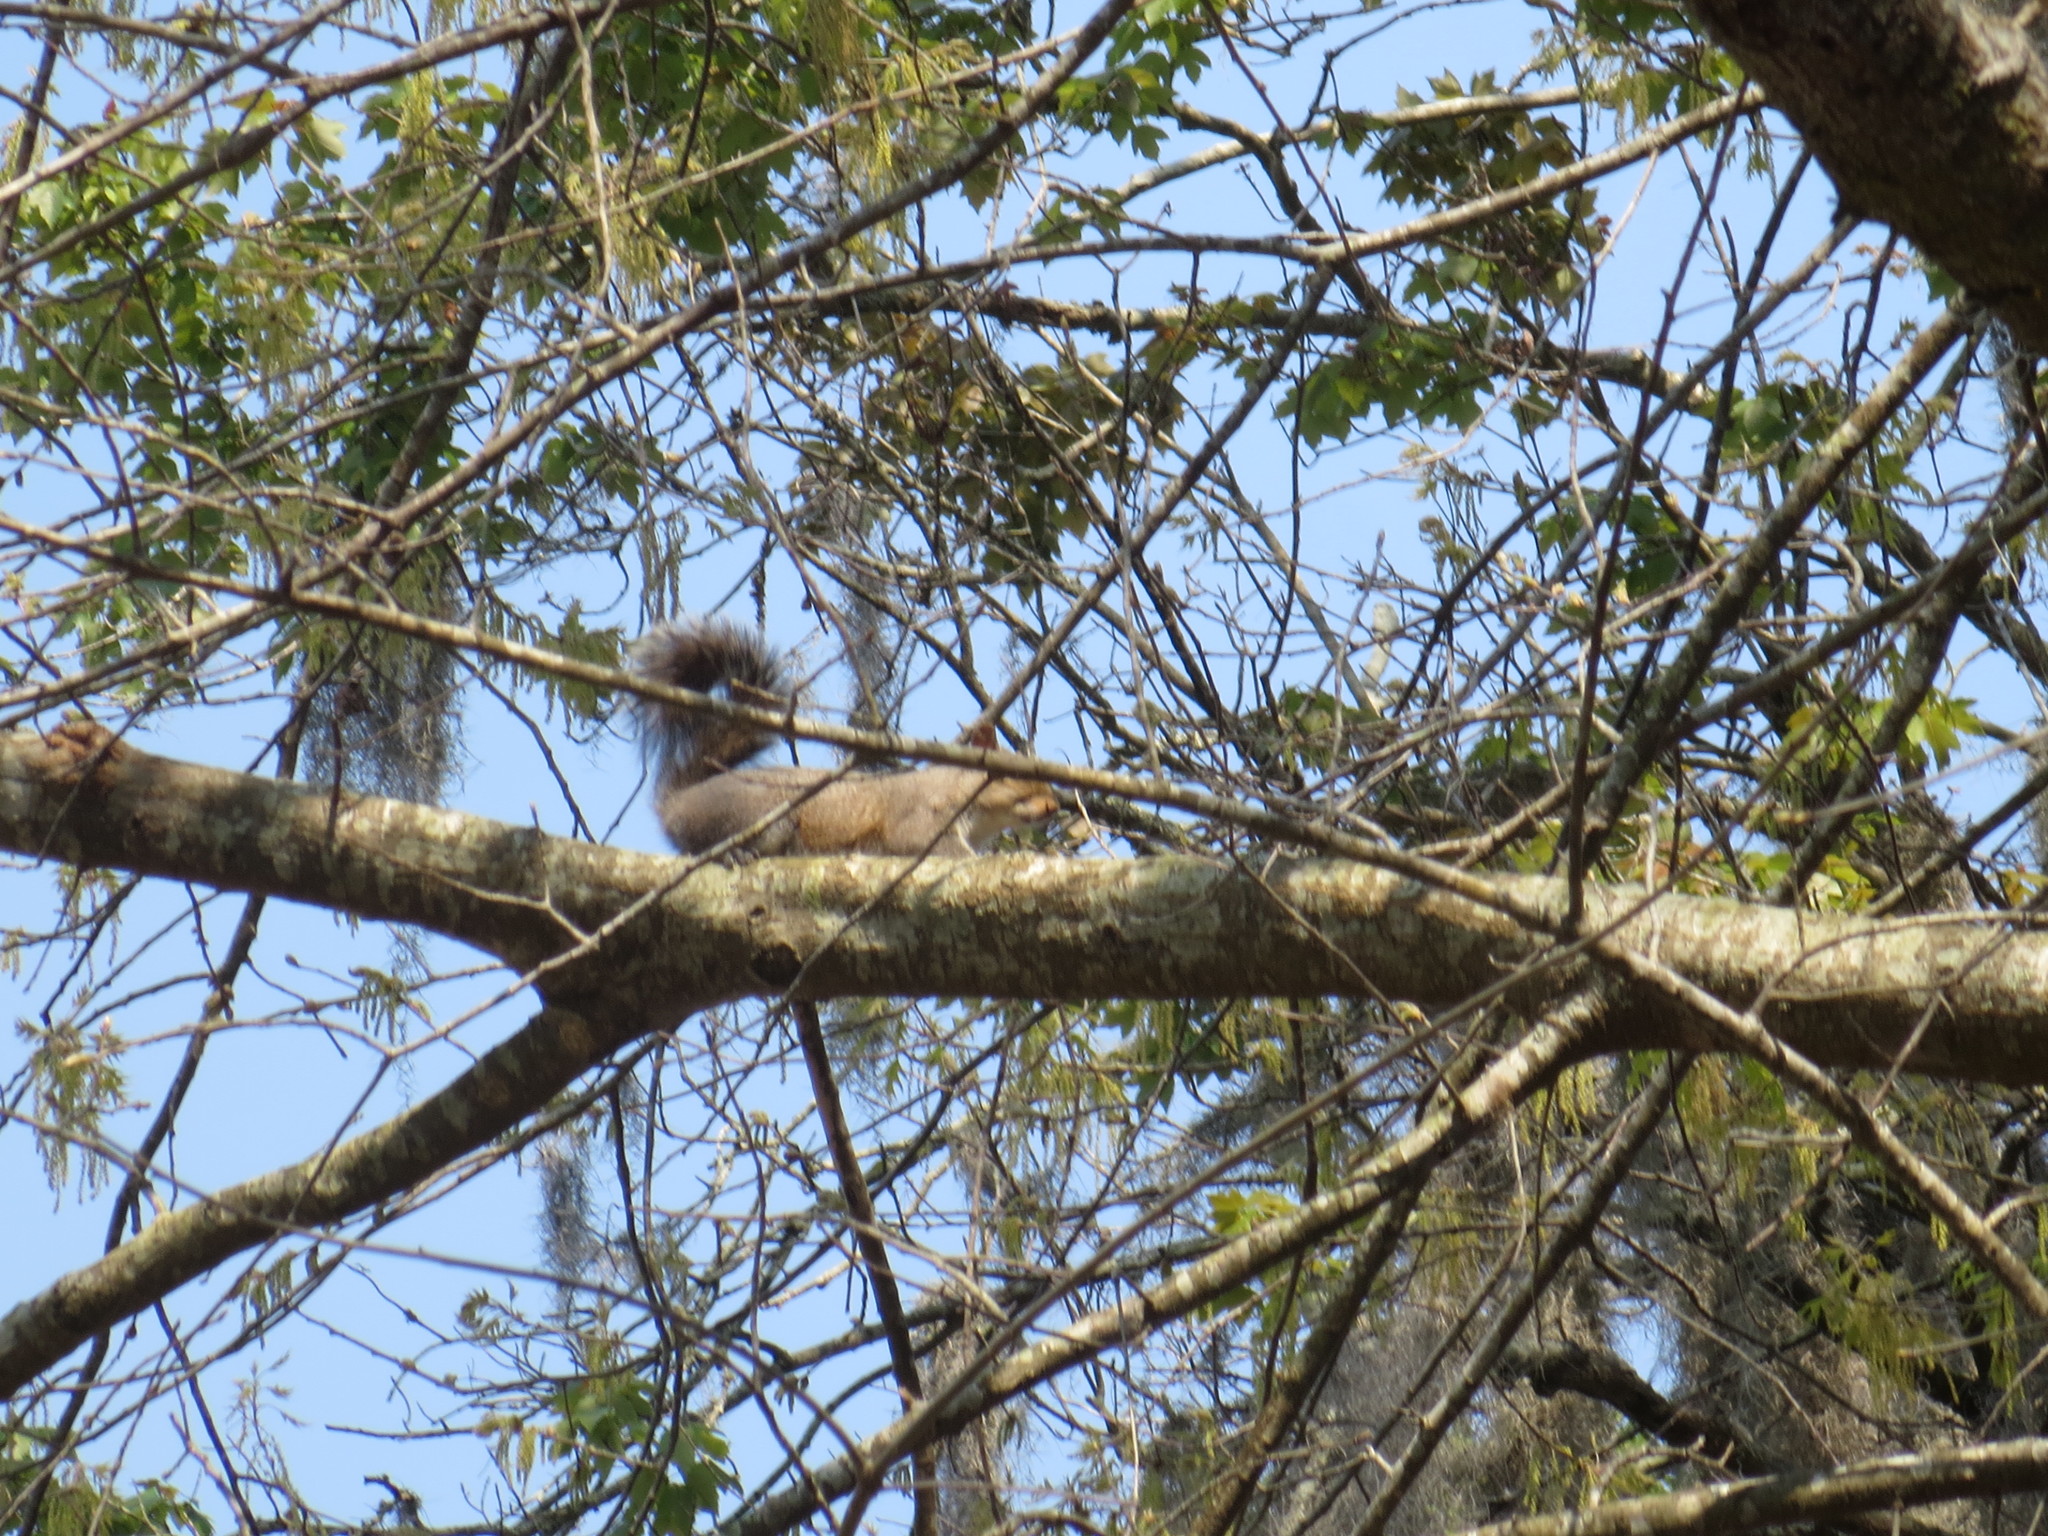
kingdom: Animalia
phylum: Chordata
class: Mammalia
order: Rodentia
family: Sciuridae
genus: Sciurus
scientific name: Sciurus carolinensis
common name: Eastern gray squirrel
